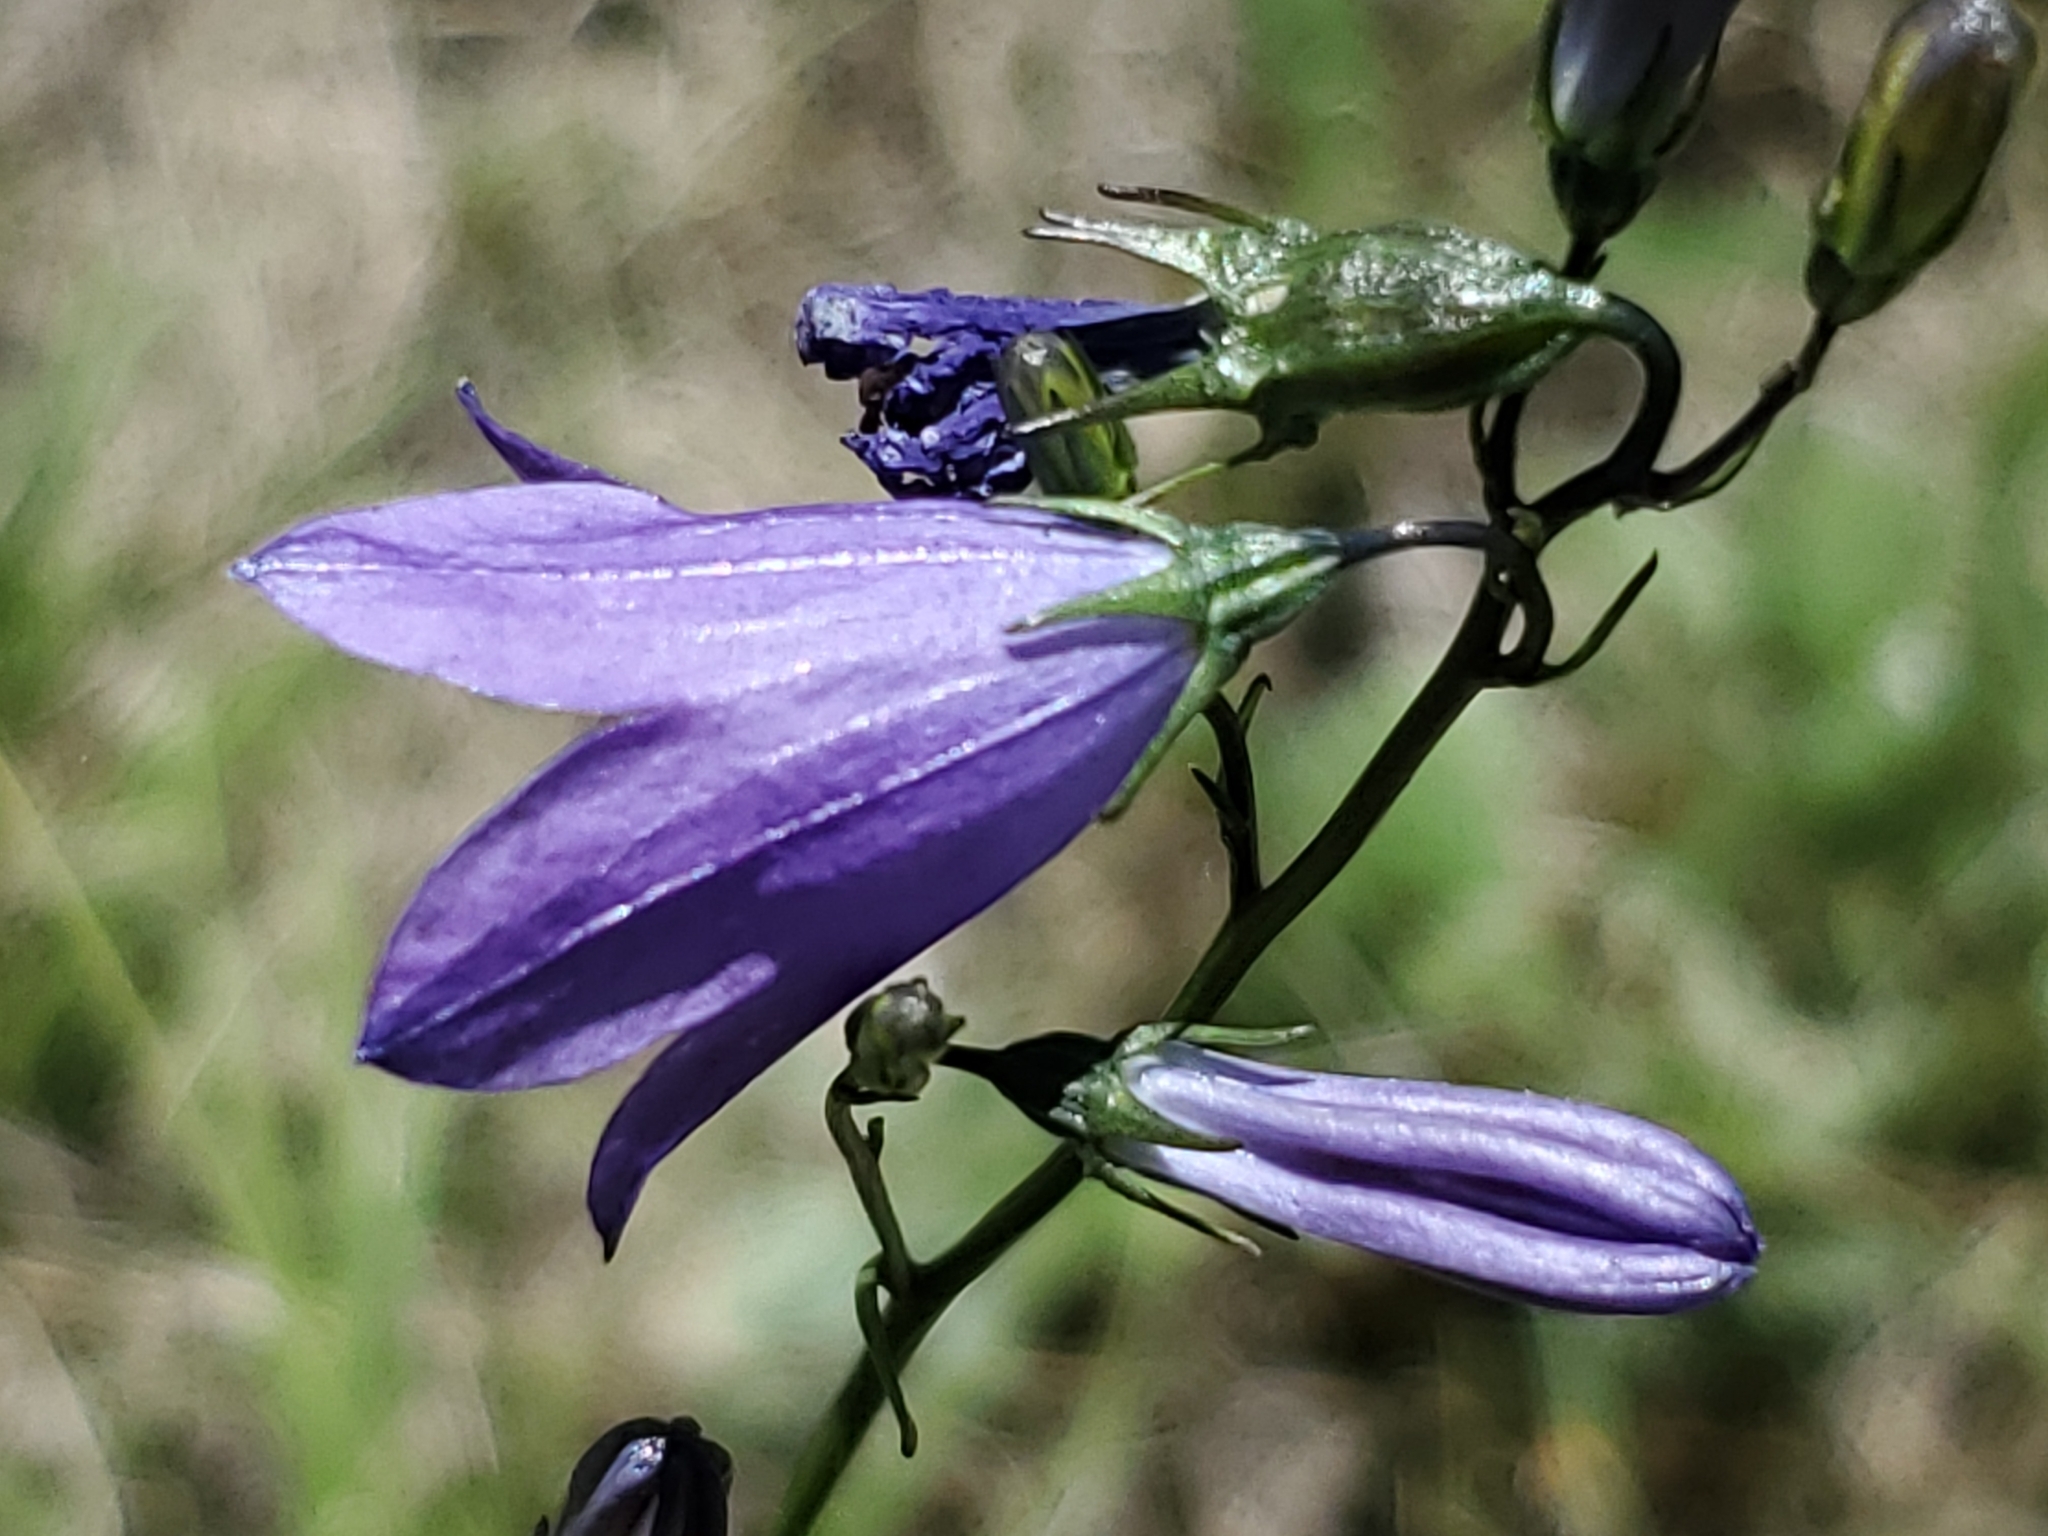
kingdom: Plantae
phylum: Tracheophyta
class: Magnoliopsida
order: Asterales
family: Campanulaceae
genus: Campanula
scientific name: Campanula petiolata
